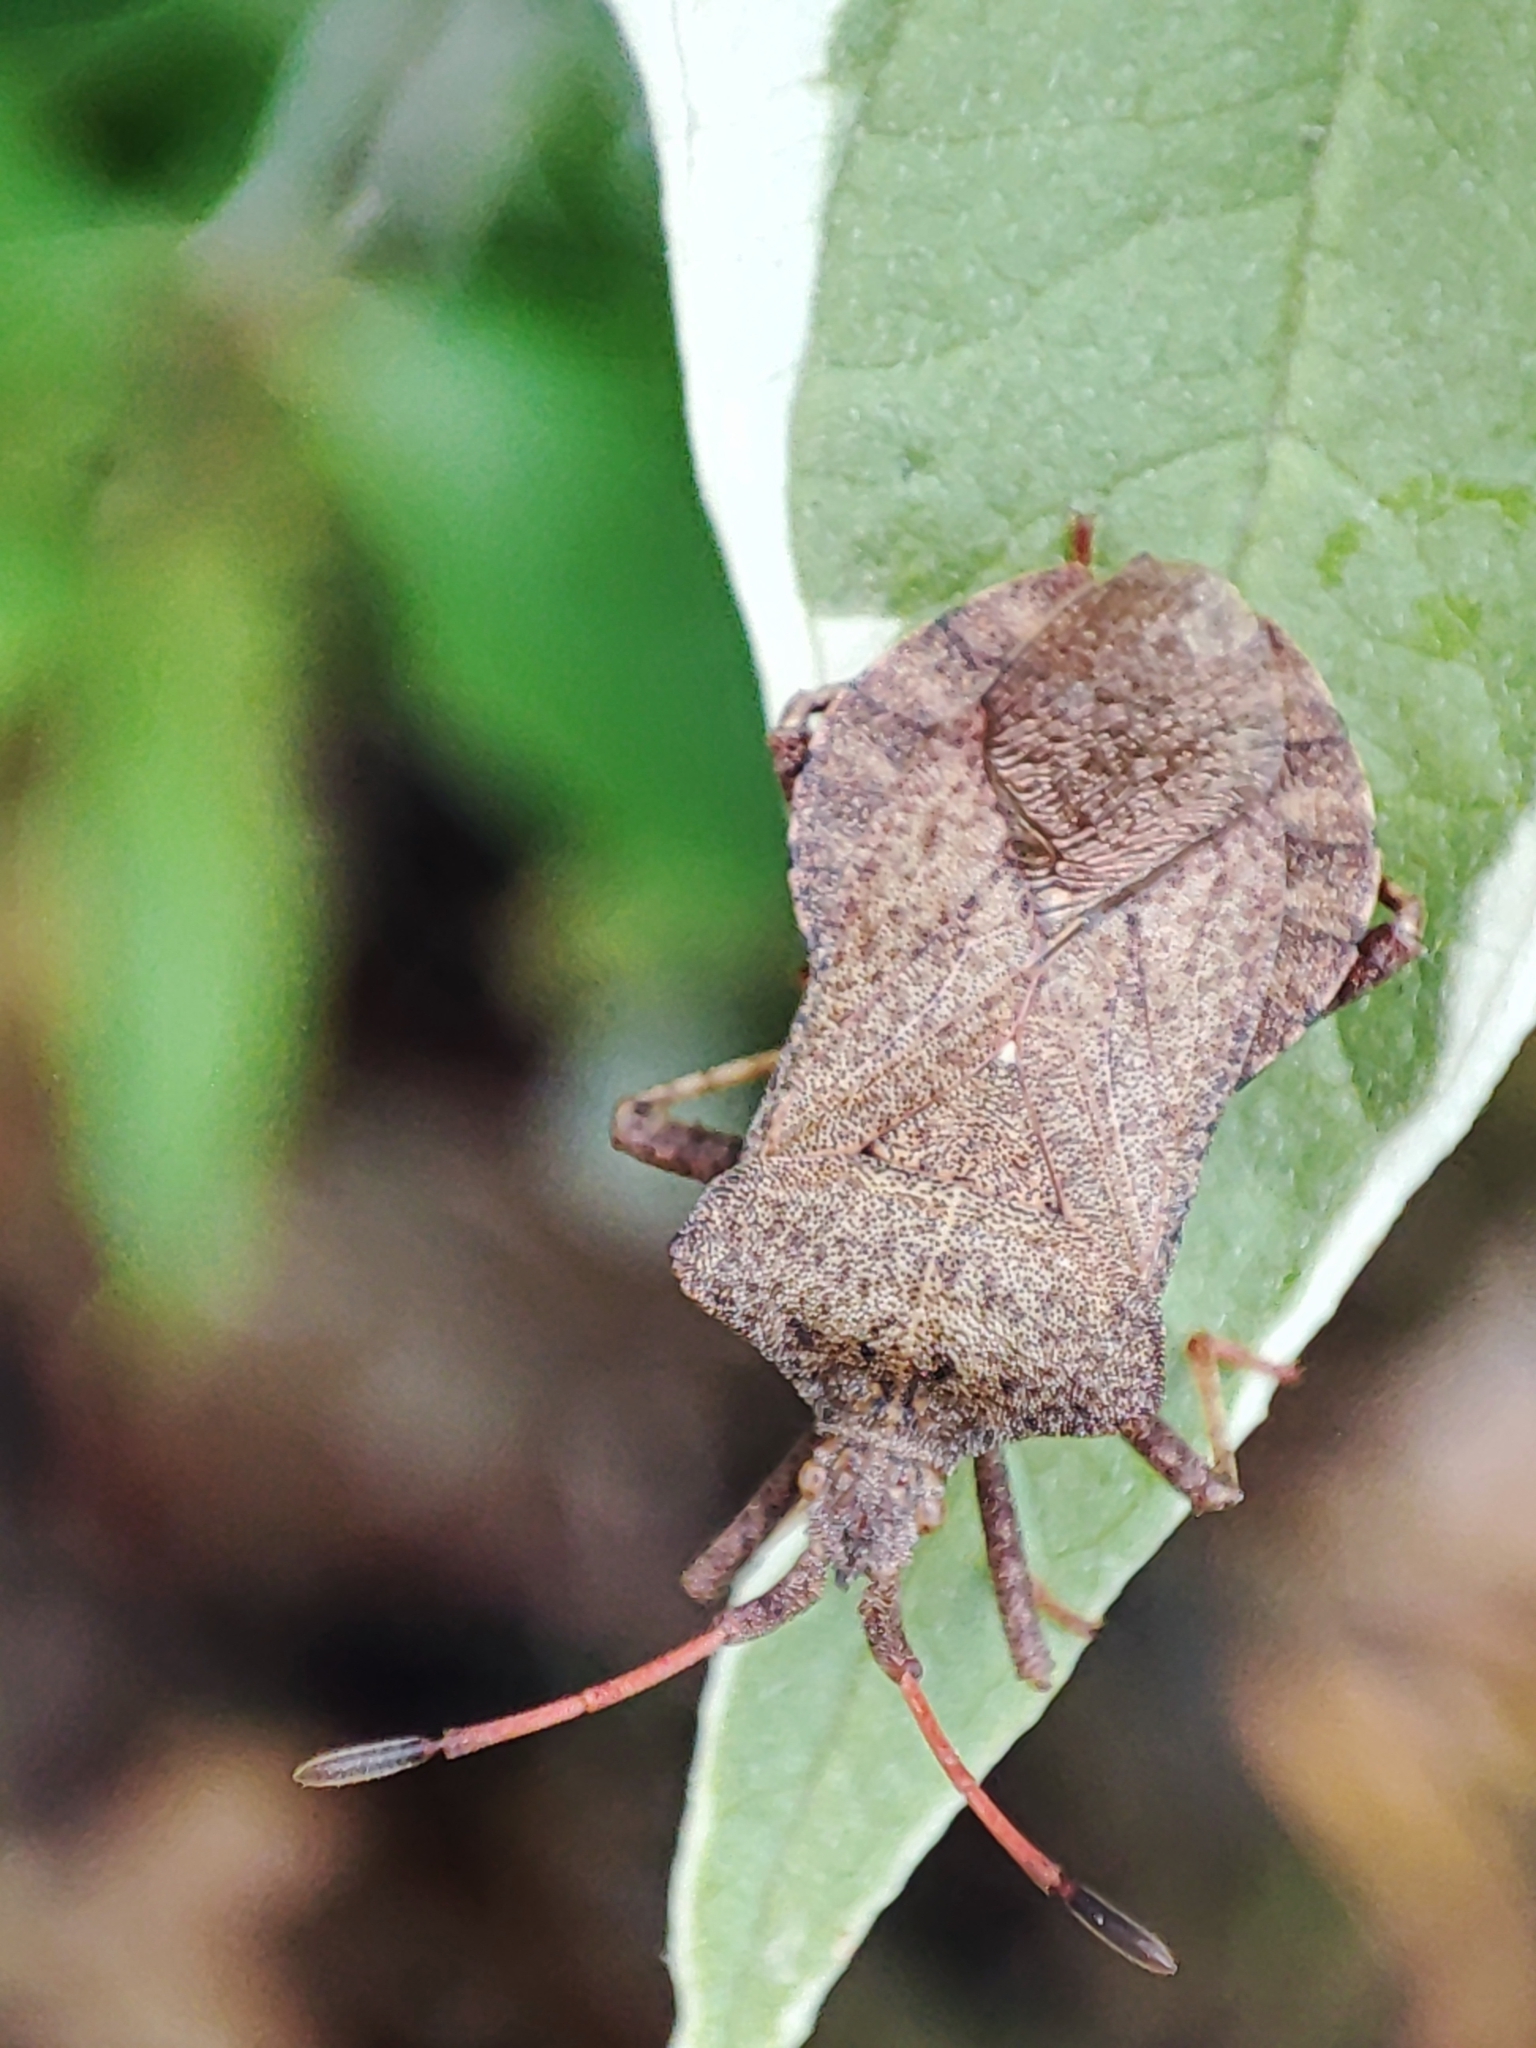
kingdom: Animalia
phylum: Arthropoda
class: Insecta
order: Hemiptera
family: Coreidae
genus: Coreus
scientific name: Coreus marginatus
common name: Dock bug
